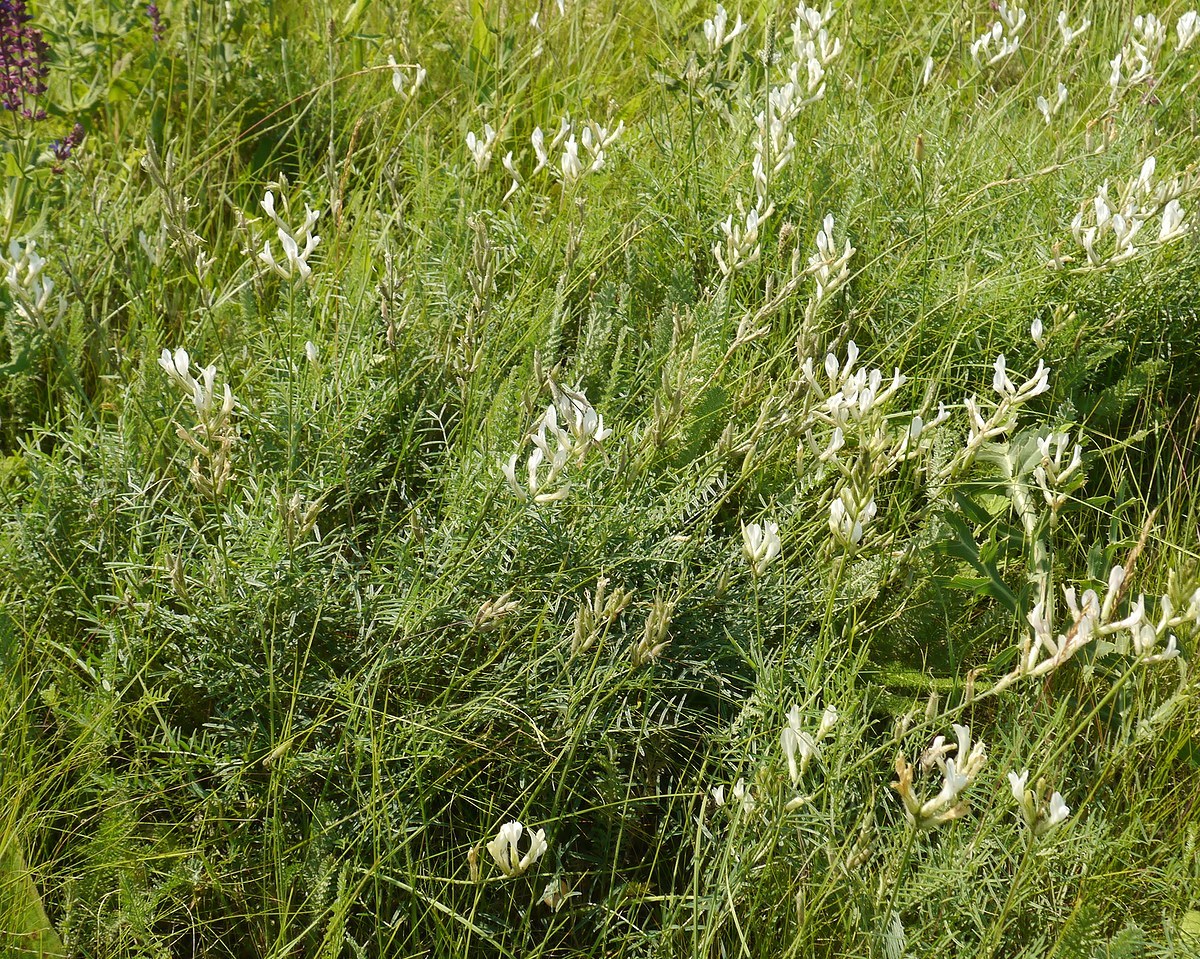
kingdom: Plantae
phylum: Tracheophyta
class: Magnoliopsida
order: Fabales
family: Fabaceae
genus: Astragalus
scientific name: Astragalus pallescens
